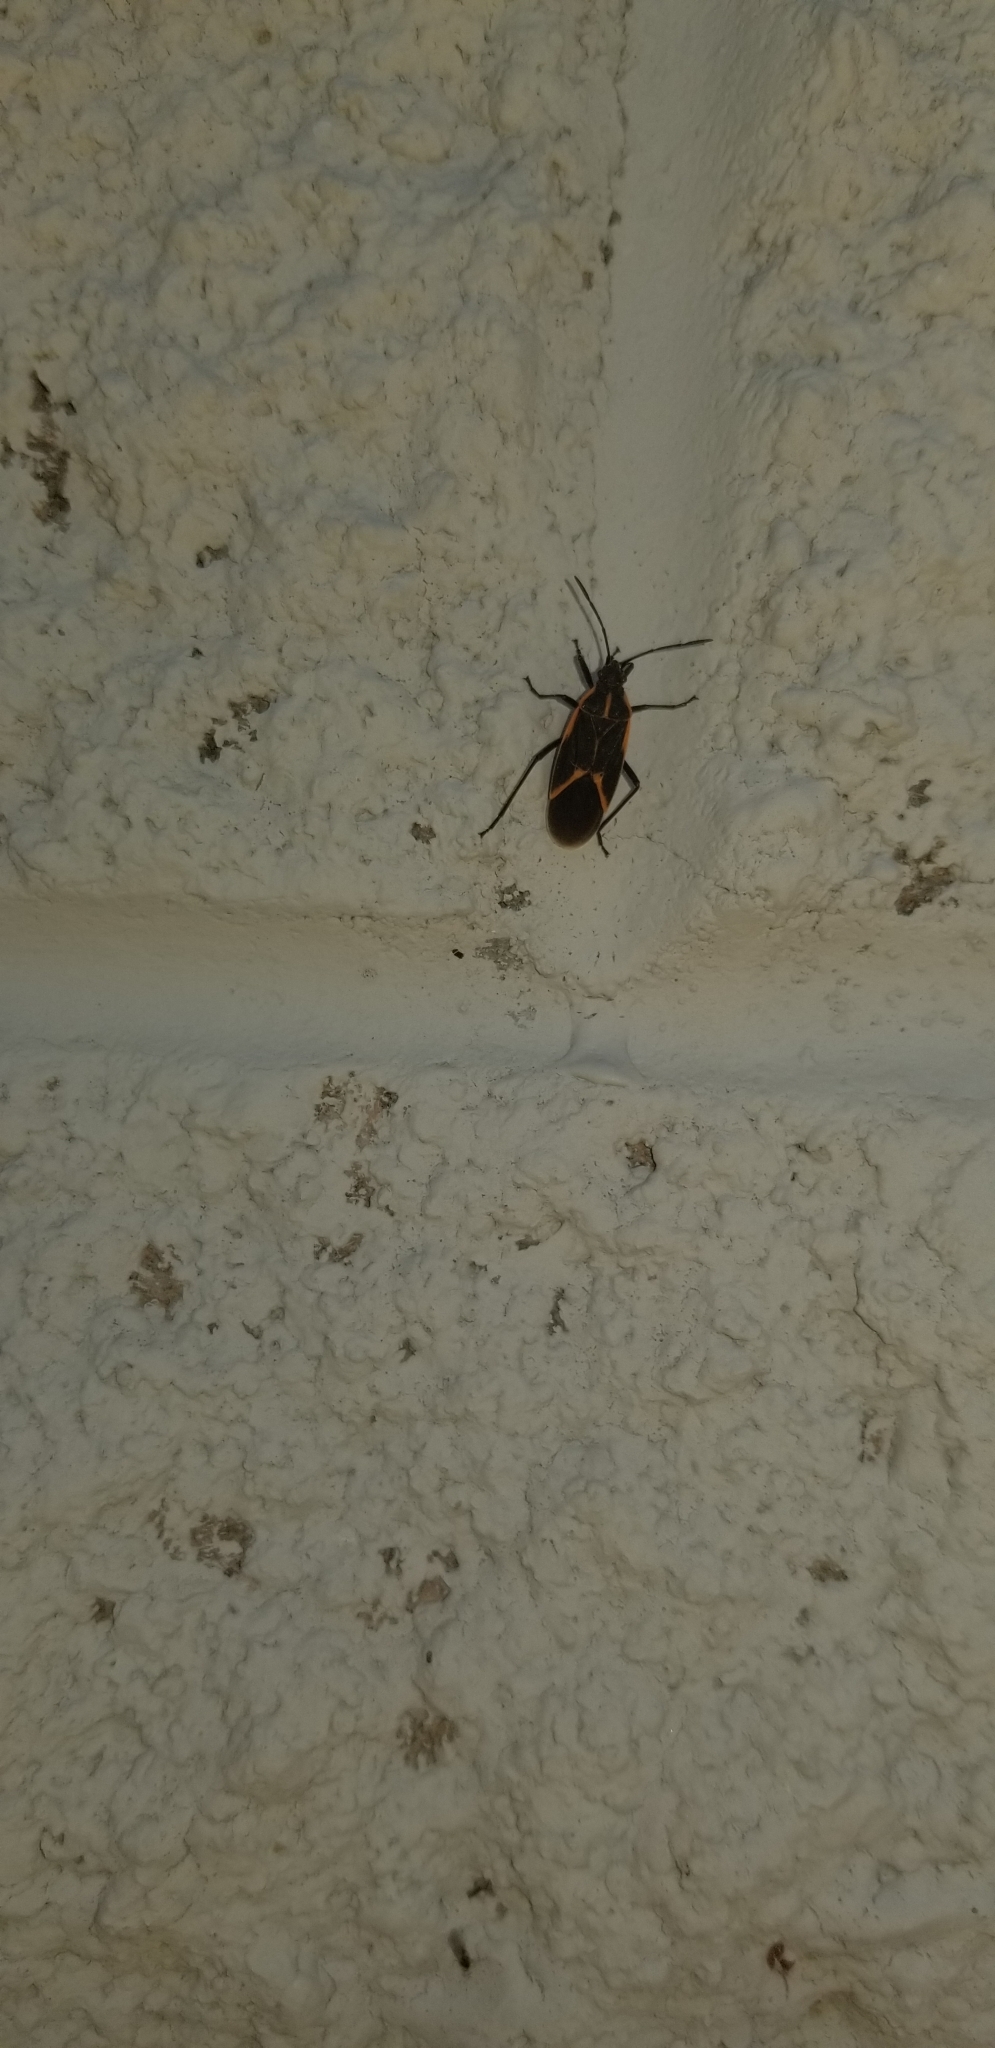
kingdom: Animalia
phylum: Arthropoda
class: Insecta
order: Hemiptera
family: Rhopalidae
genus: Boisea
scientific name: Boisea trivittata
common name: Boxelder bug
